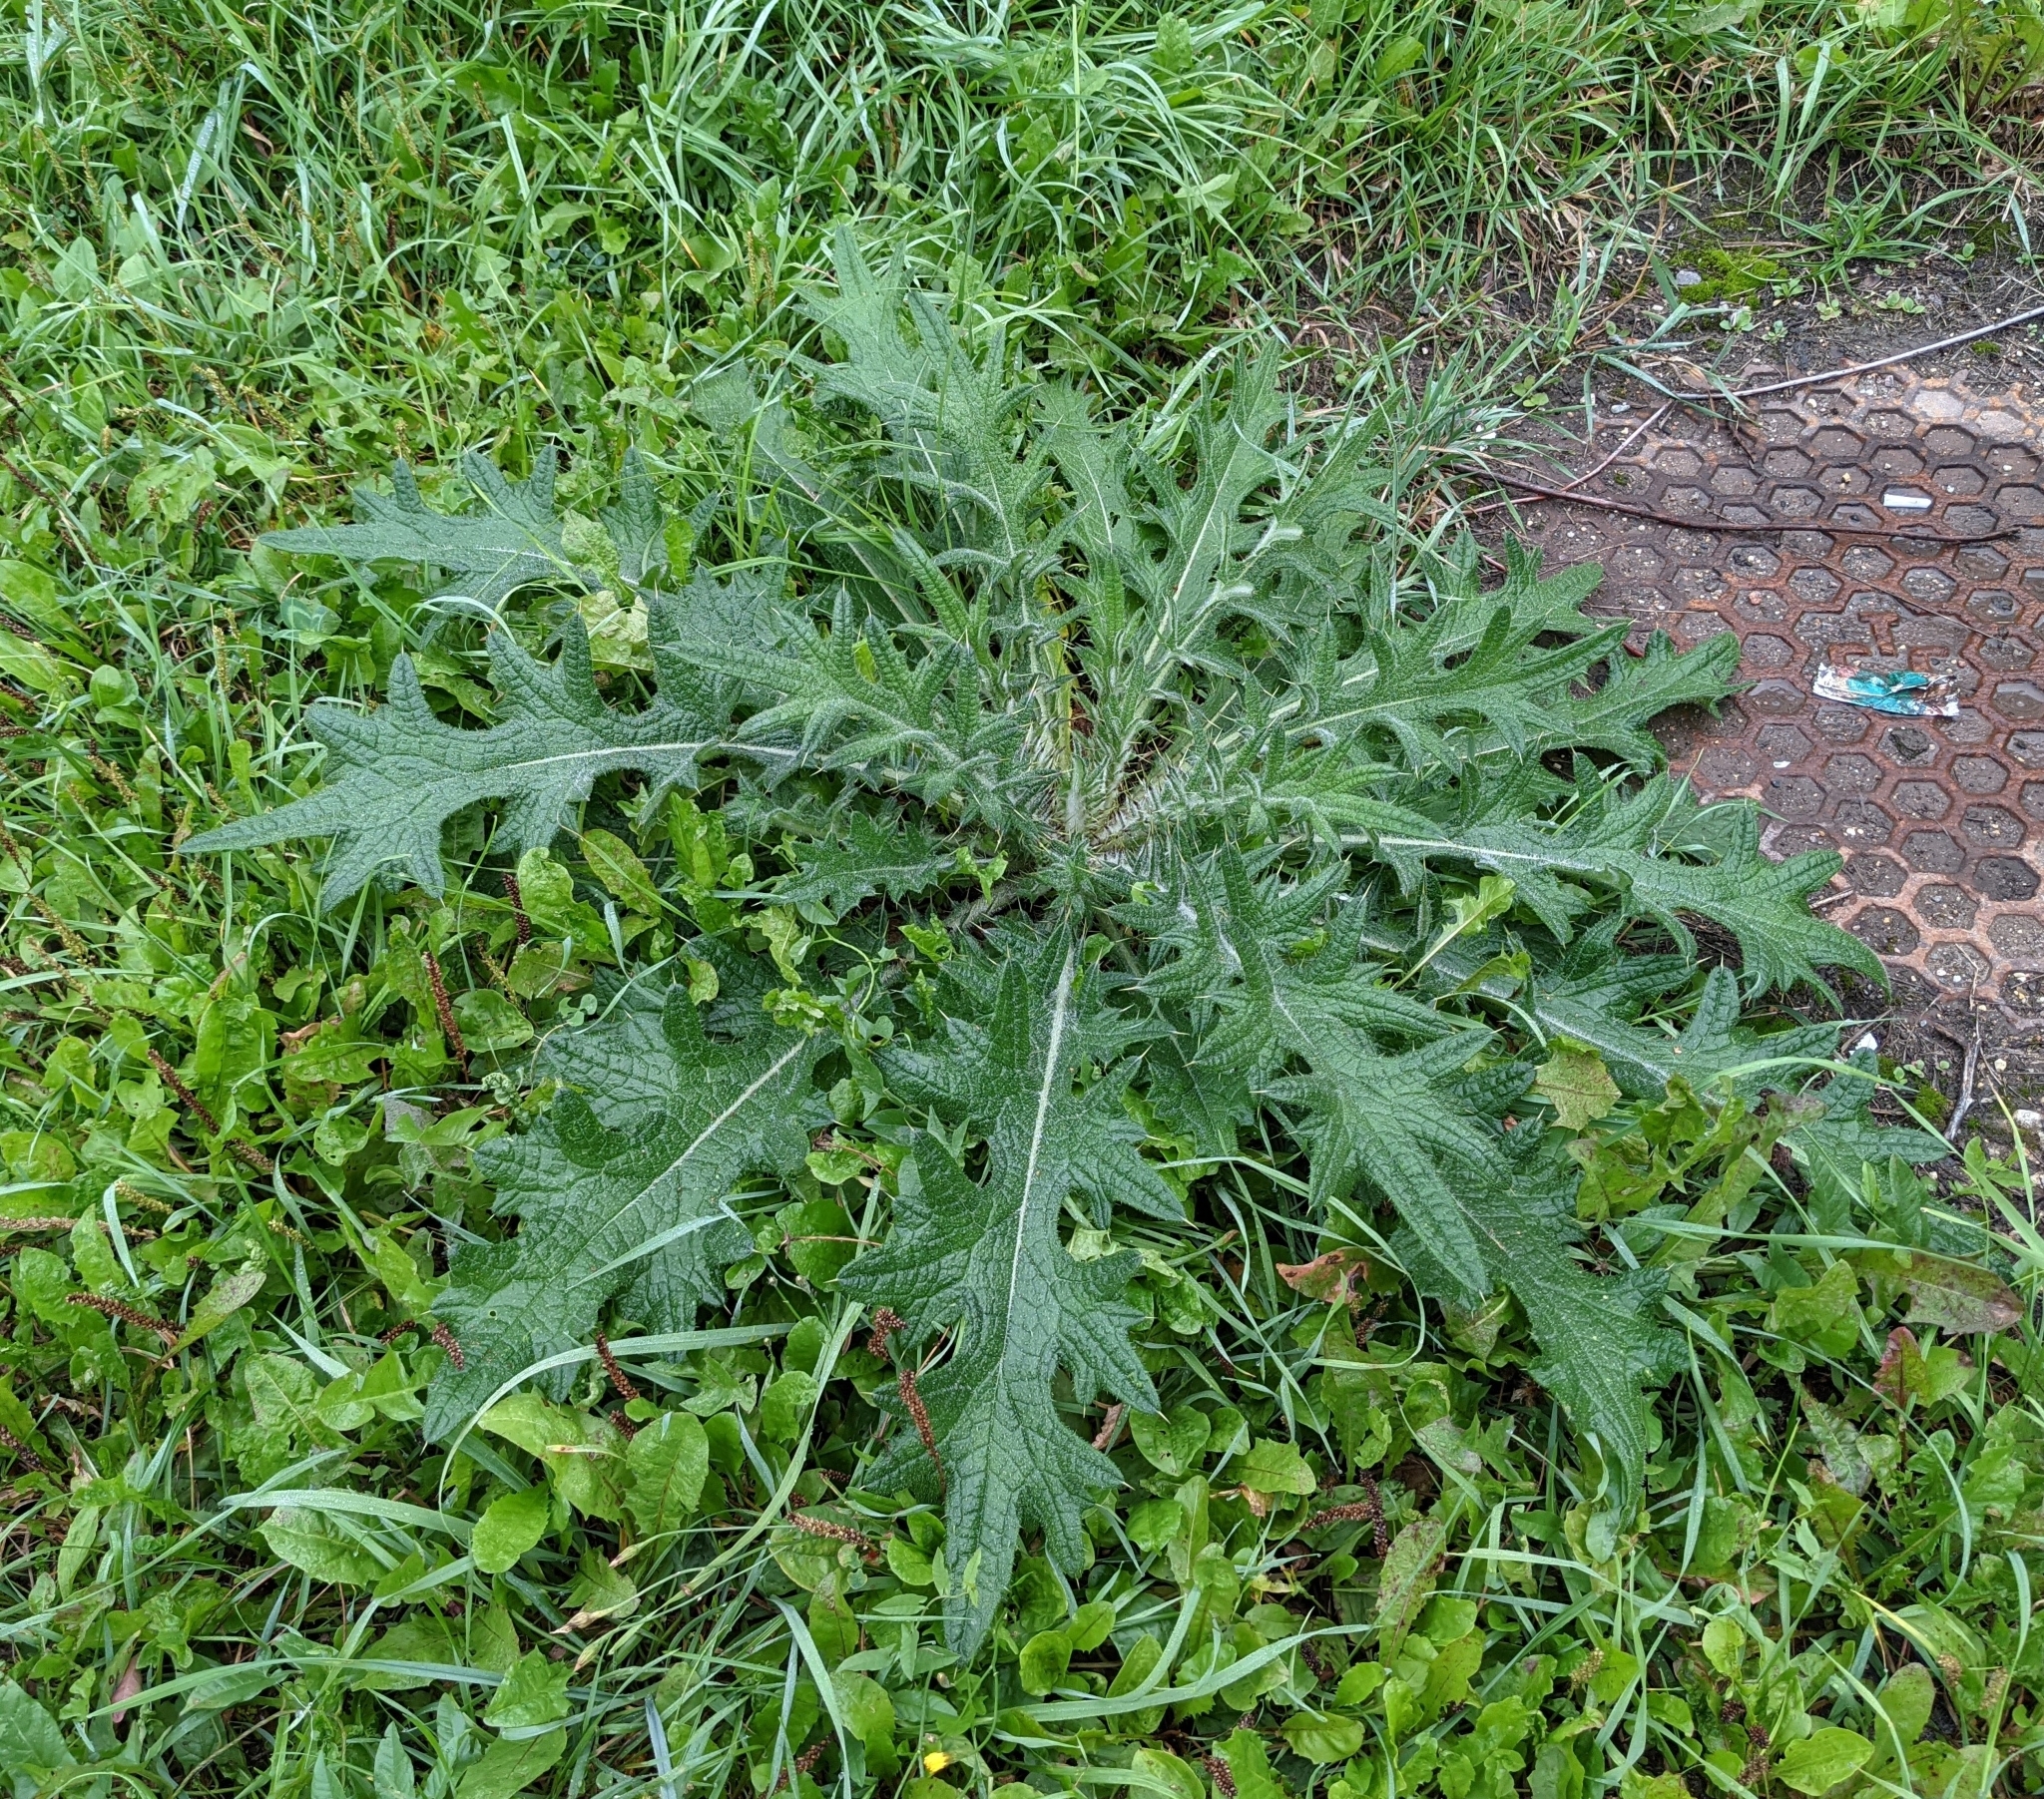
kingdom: Plantae
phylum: Tracheophyta
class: Magnoliopsida
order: Asterales
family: Asteraceae
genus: Cirsium
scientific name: Cirsium vulgare
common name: Bull thistle
